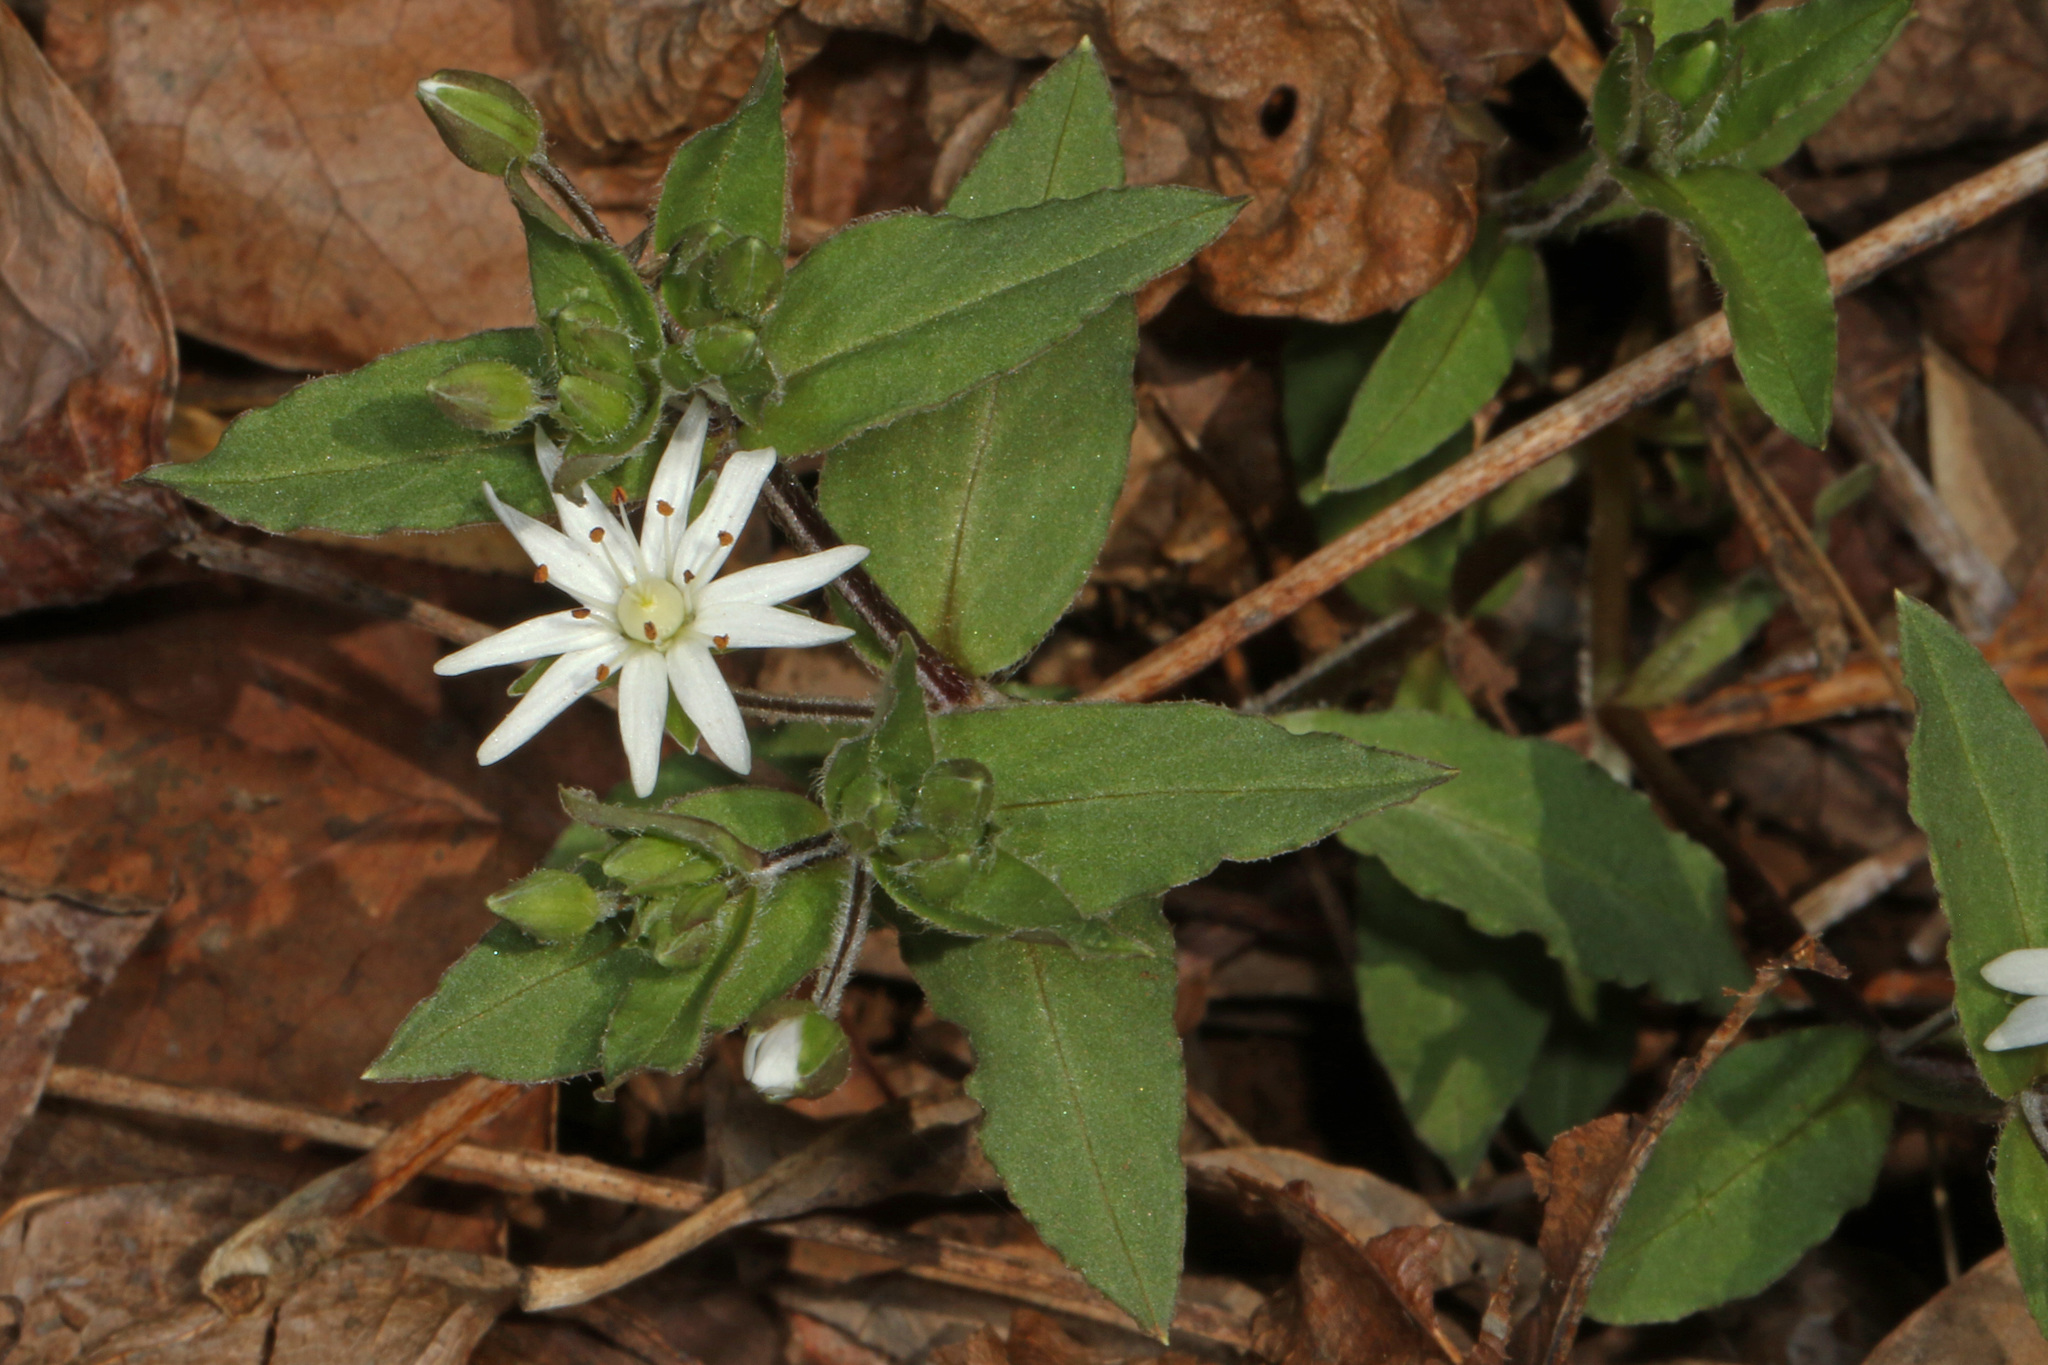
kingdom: Plantae
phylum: Tracheophyta
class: Magnoliopsida
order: Caryophyllales
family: Caryophyllaceae
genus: Stellaria
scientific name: Stellaria pubera
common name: Star chickweed
